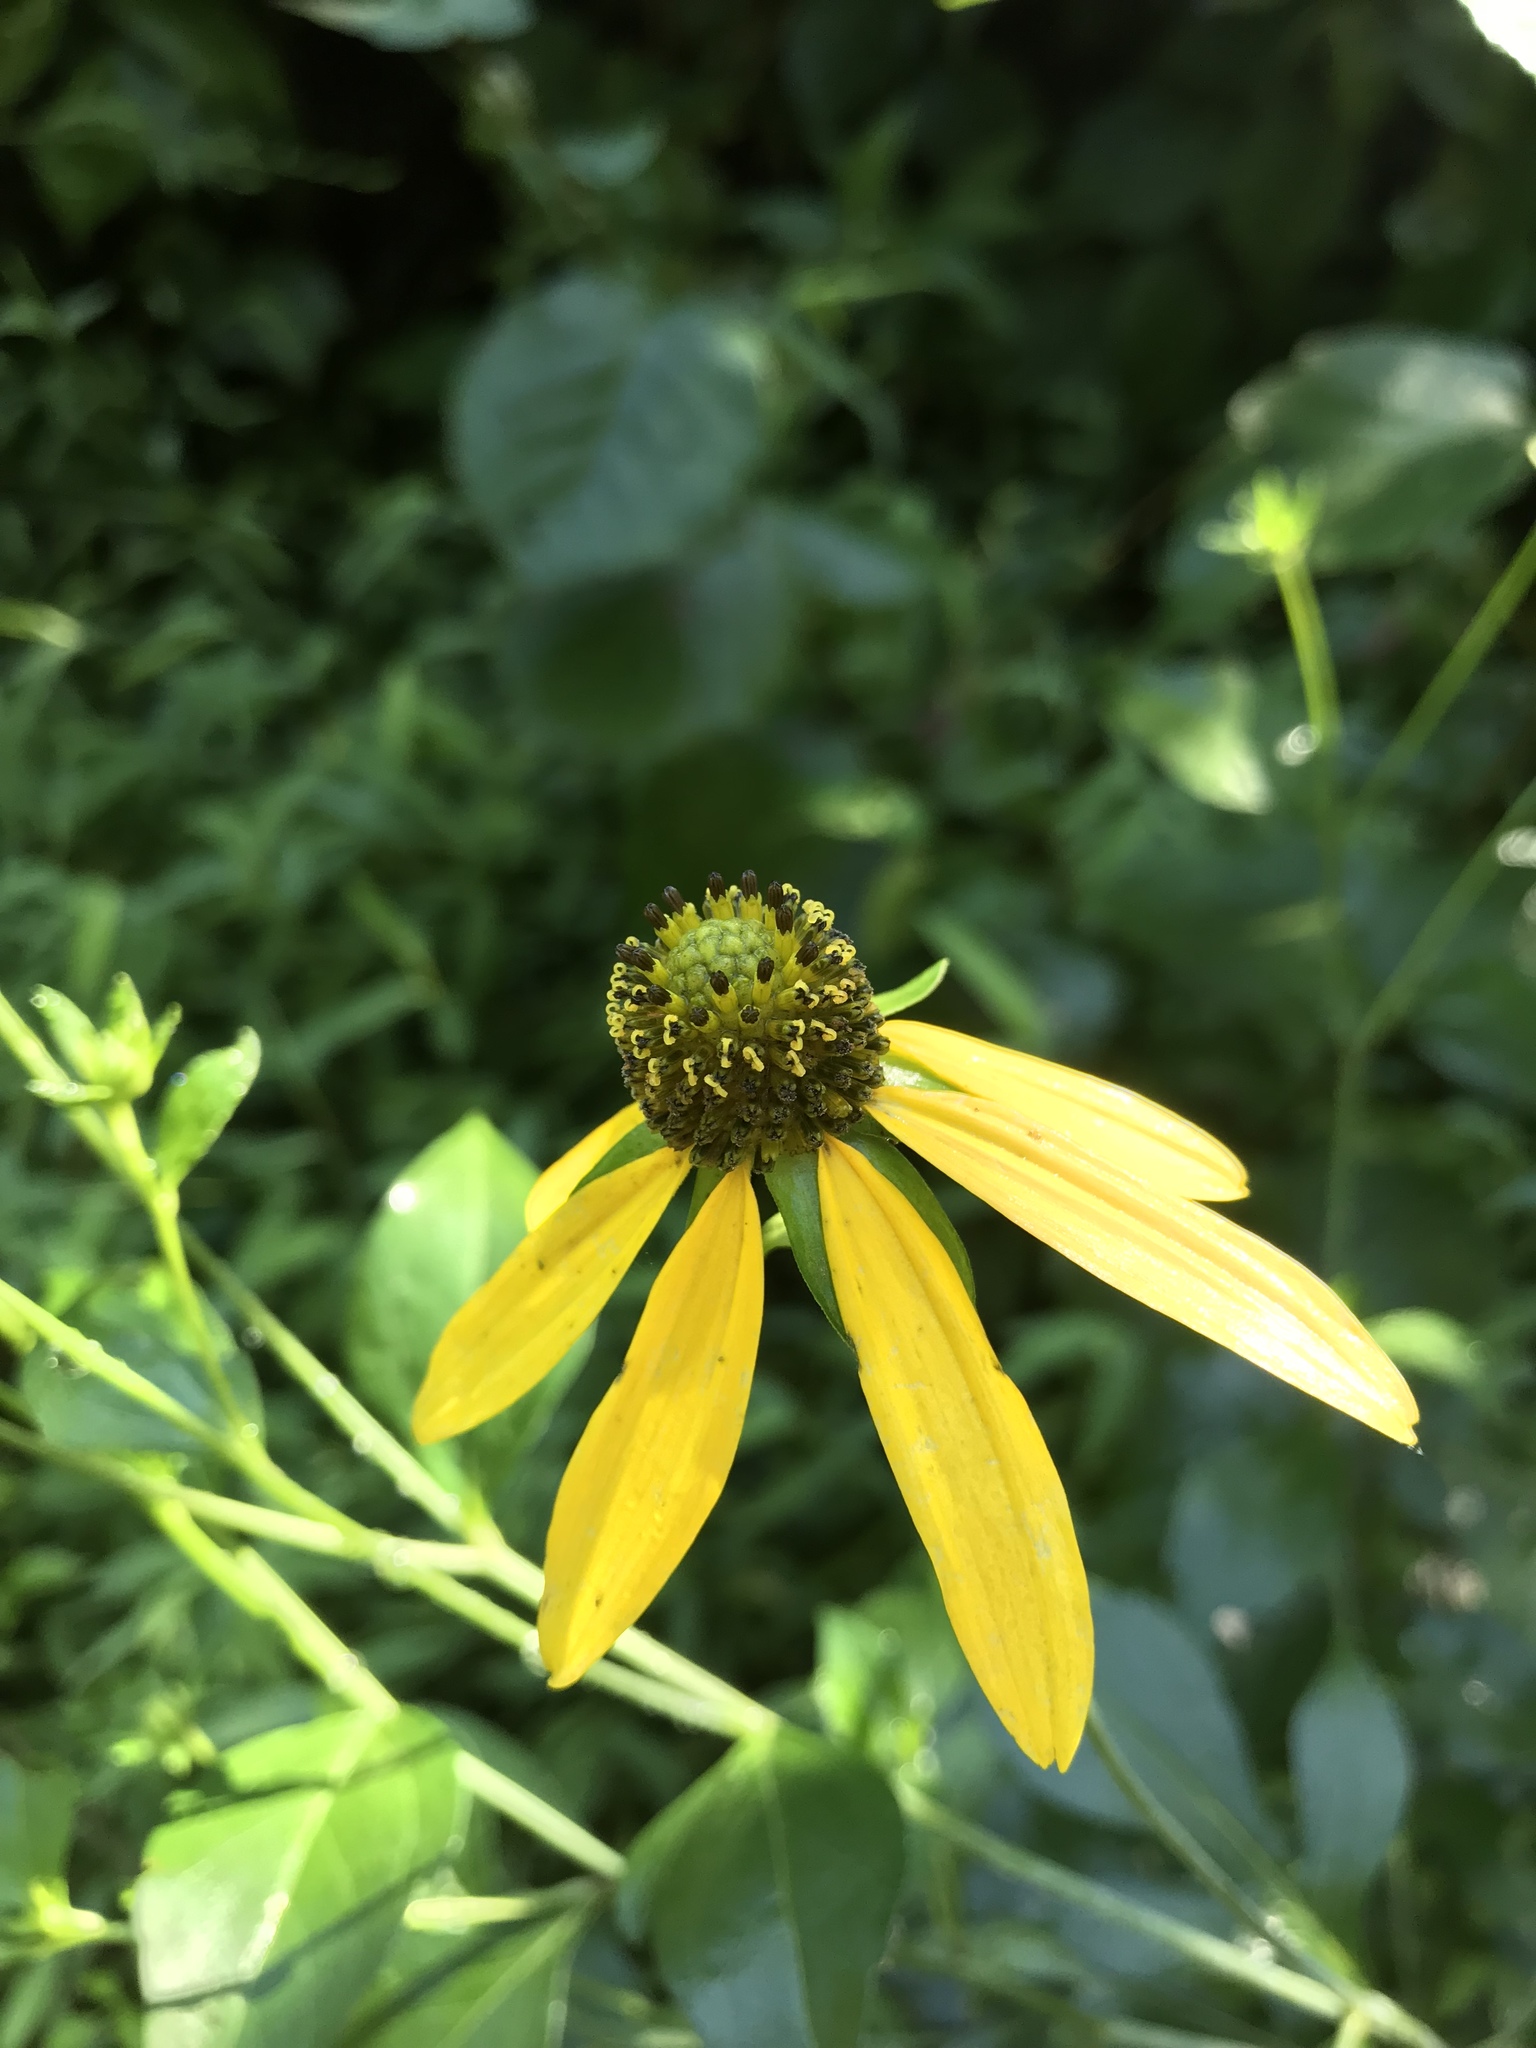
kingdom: Plantae
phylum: Tracheophyta
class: Magnoliopsida
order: Asterales
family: Asteraceae
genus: Rudbeckia
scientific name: Rudbeckia laciniata
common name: Coneflower
